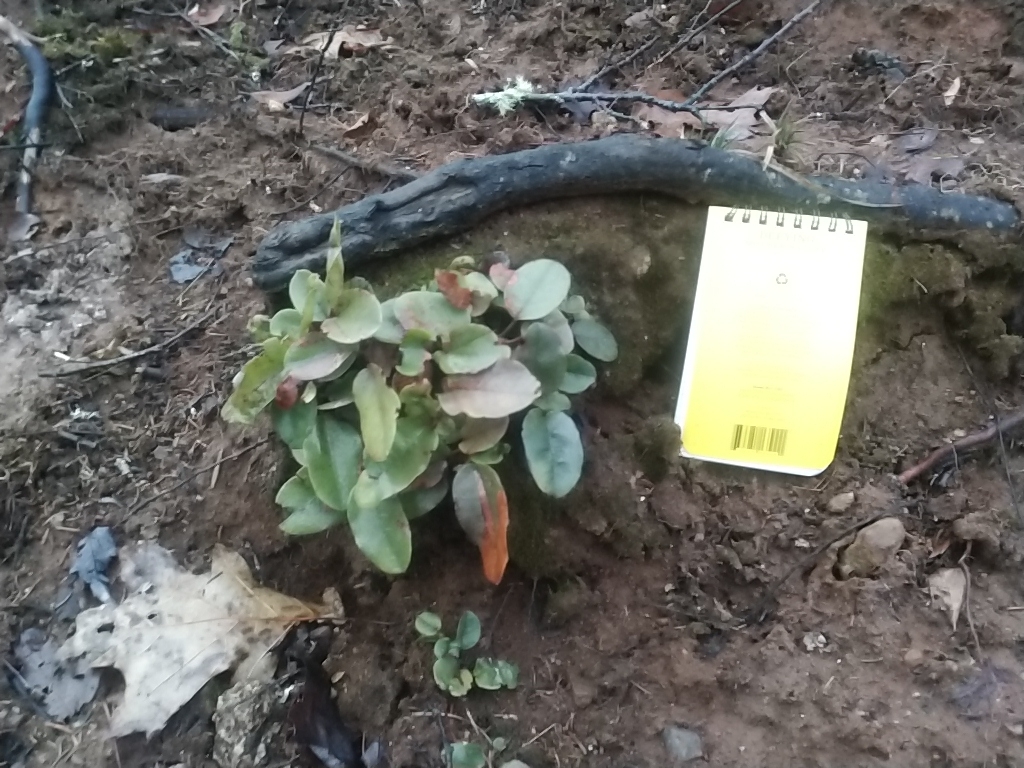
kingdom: Plantae
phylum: Tracheophyta
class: Magnoliopsida
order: Ericales
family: Ericaceae
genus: Epigaea
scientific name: Epigaea repens
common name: Gravelroot
